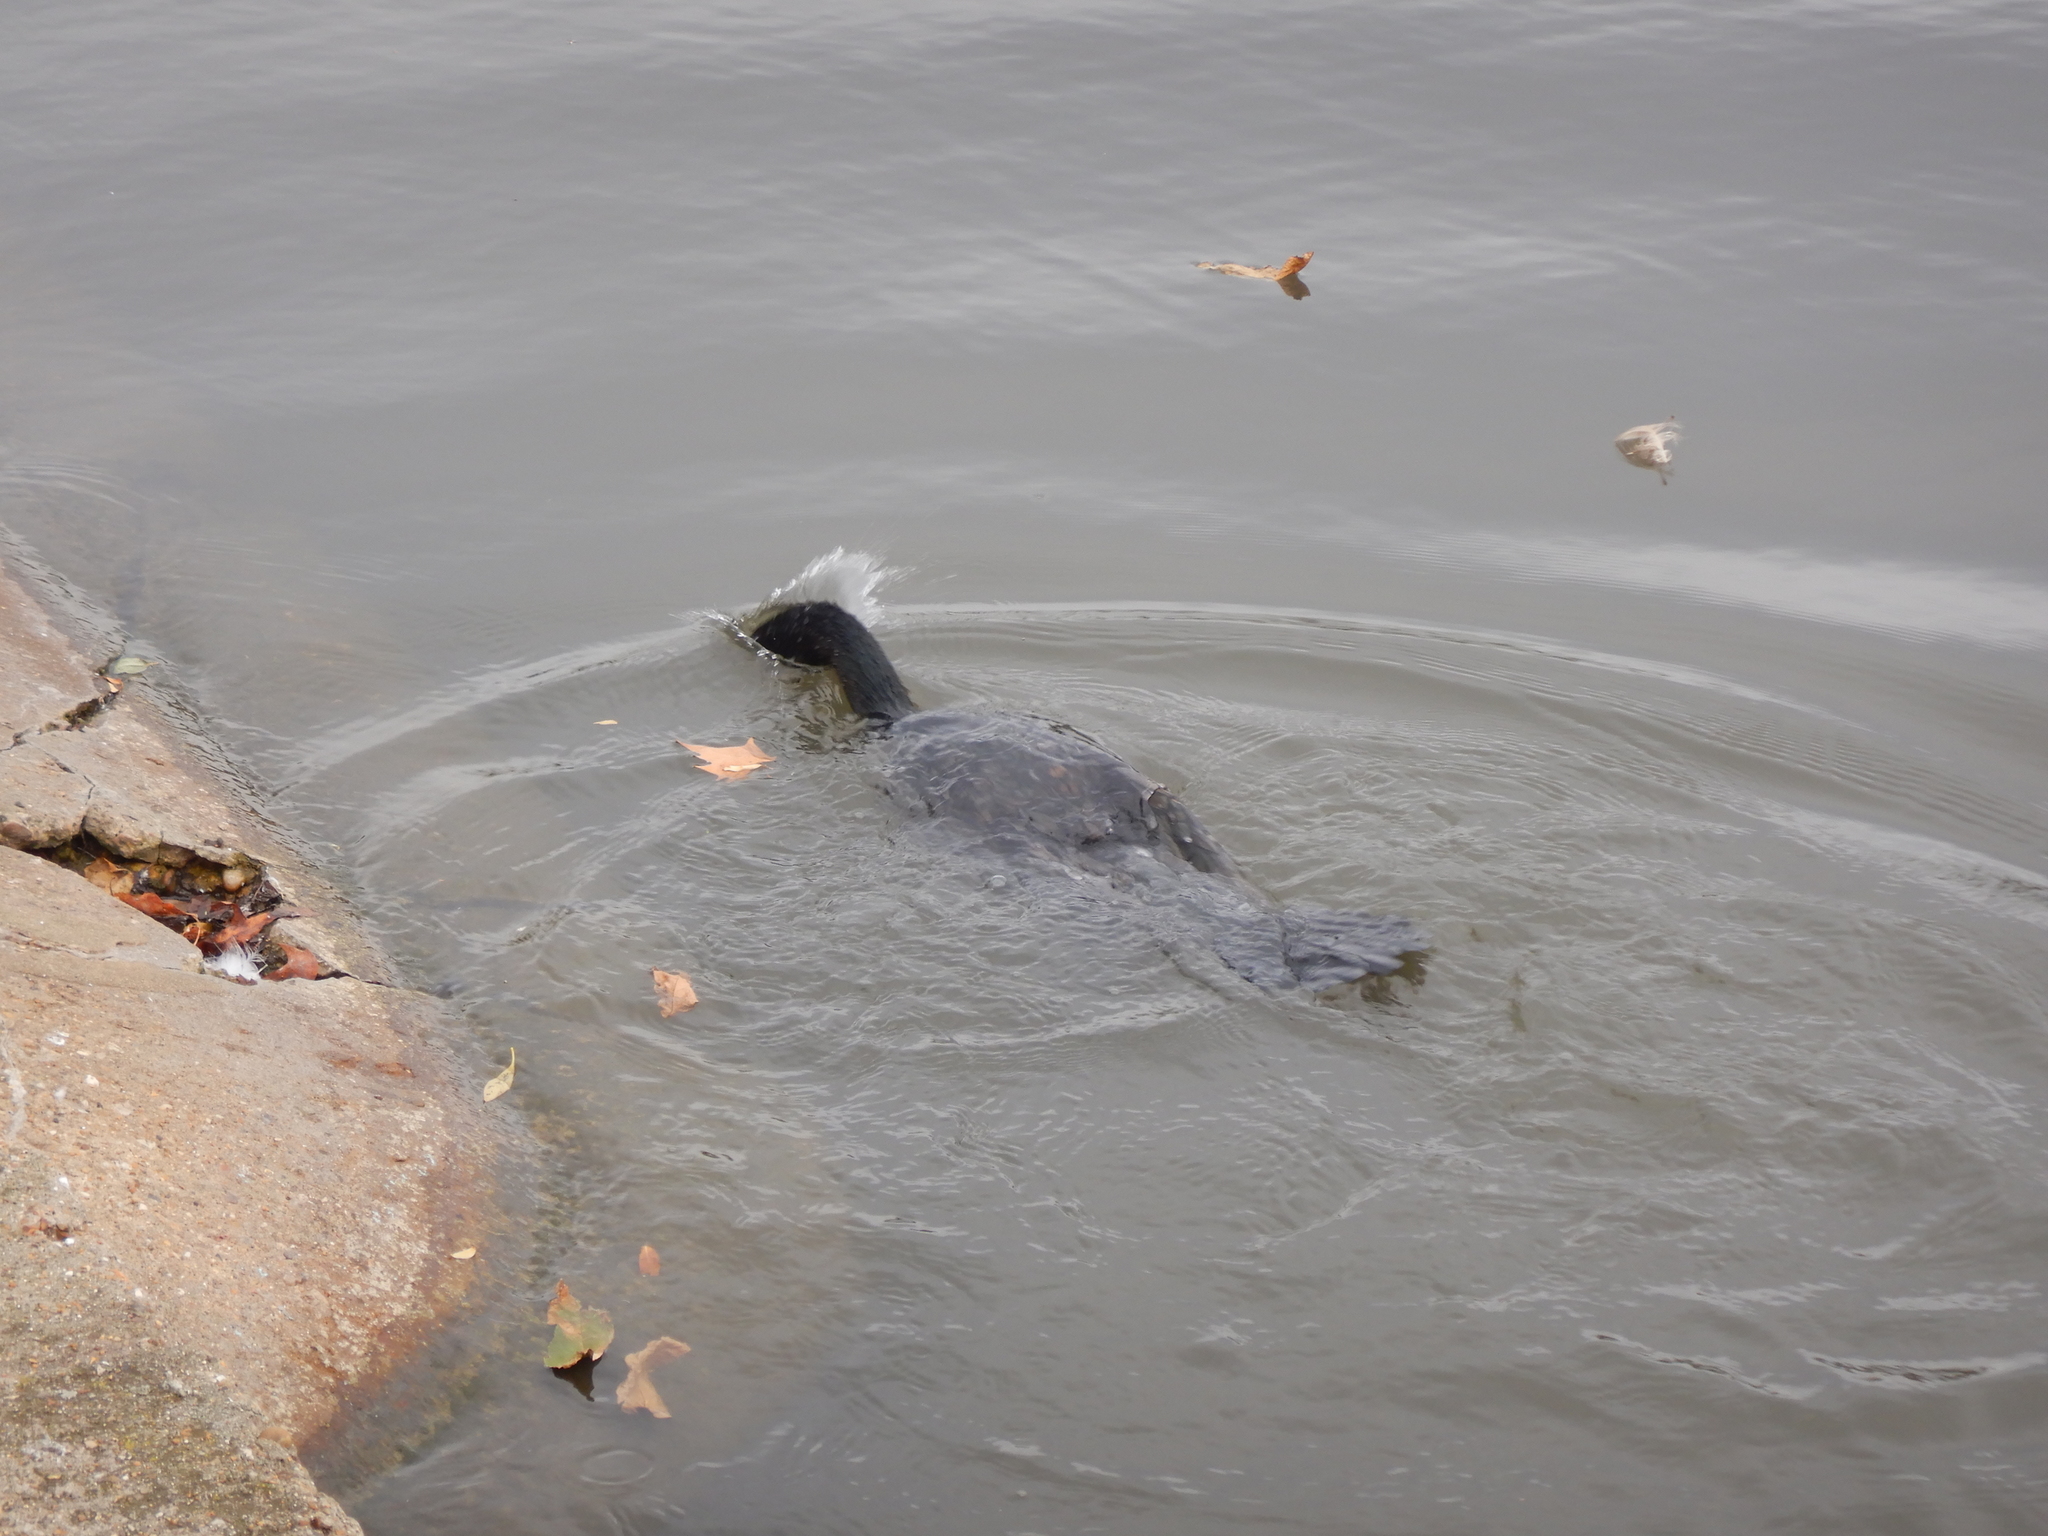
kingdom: Animalia
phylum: Chordata
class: Aves
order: Suliformes
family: Phalacrocoracidae
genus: Phalacrocorax
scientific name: Phalacrocorax carbo
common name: Great cormorant
